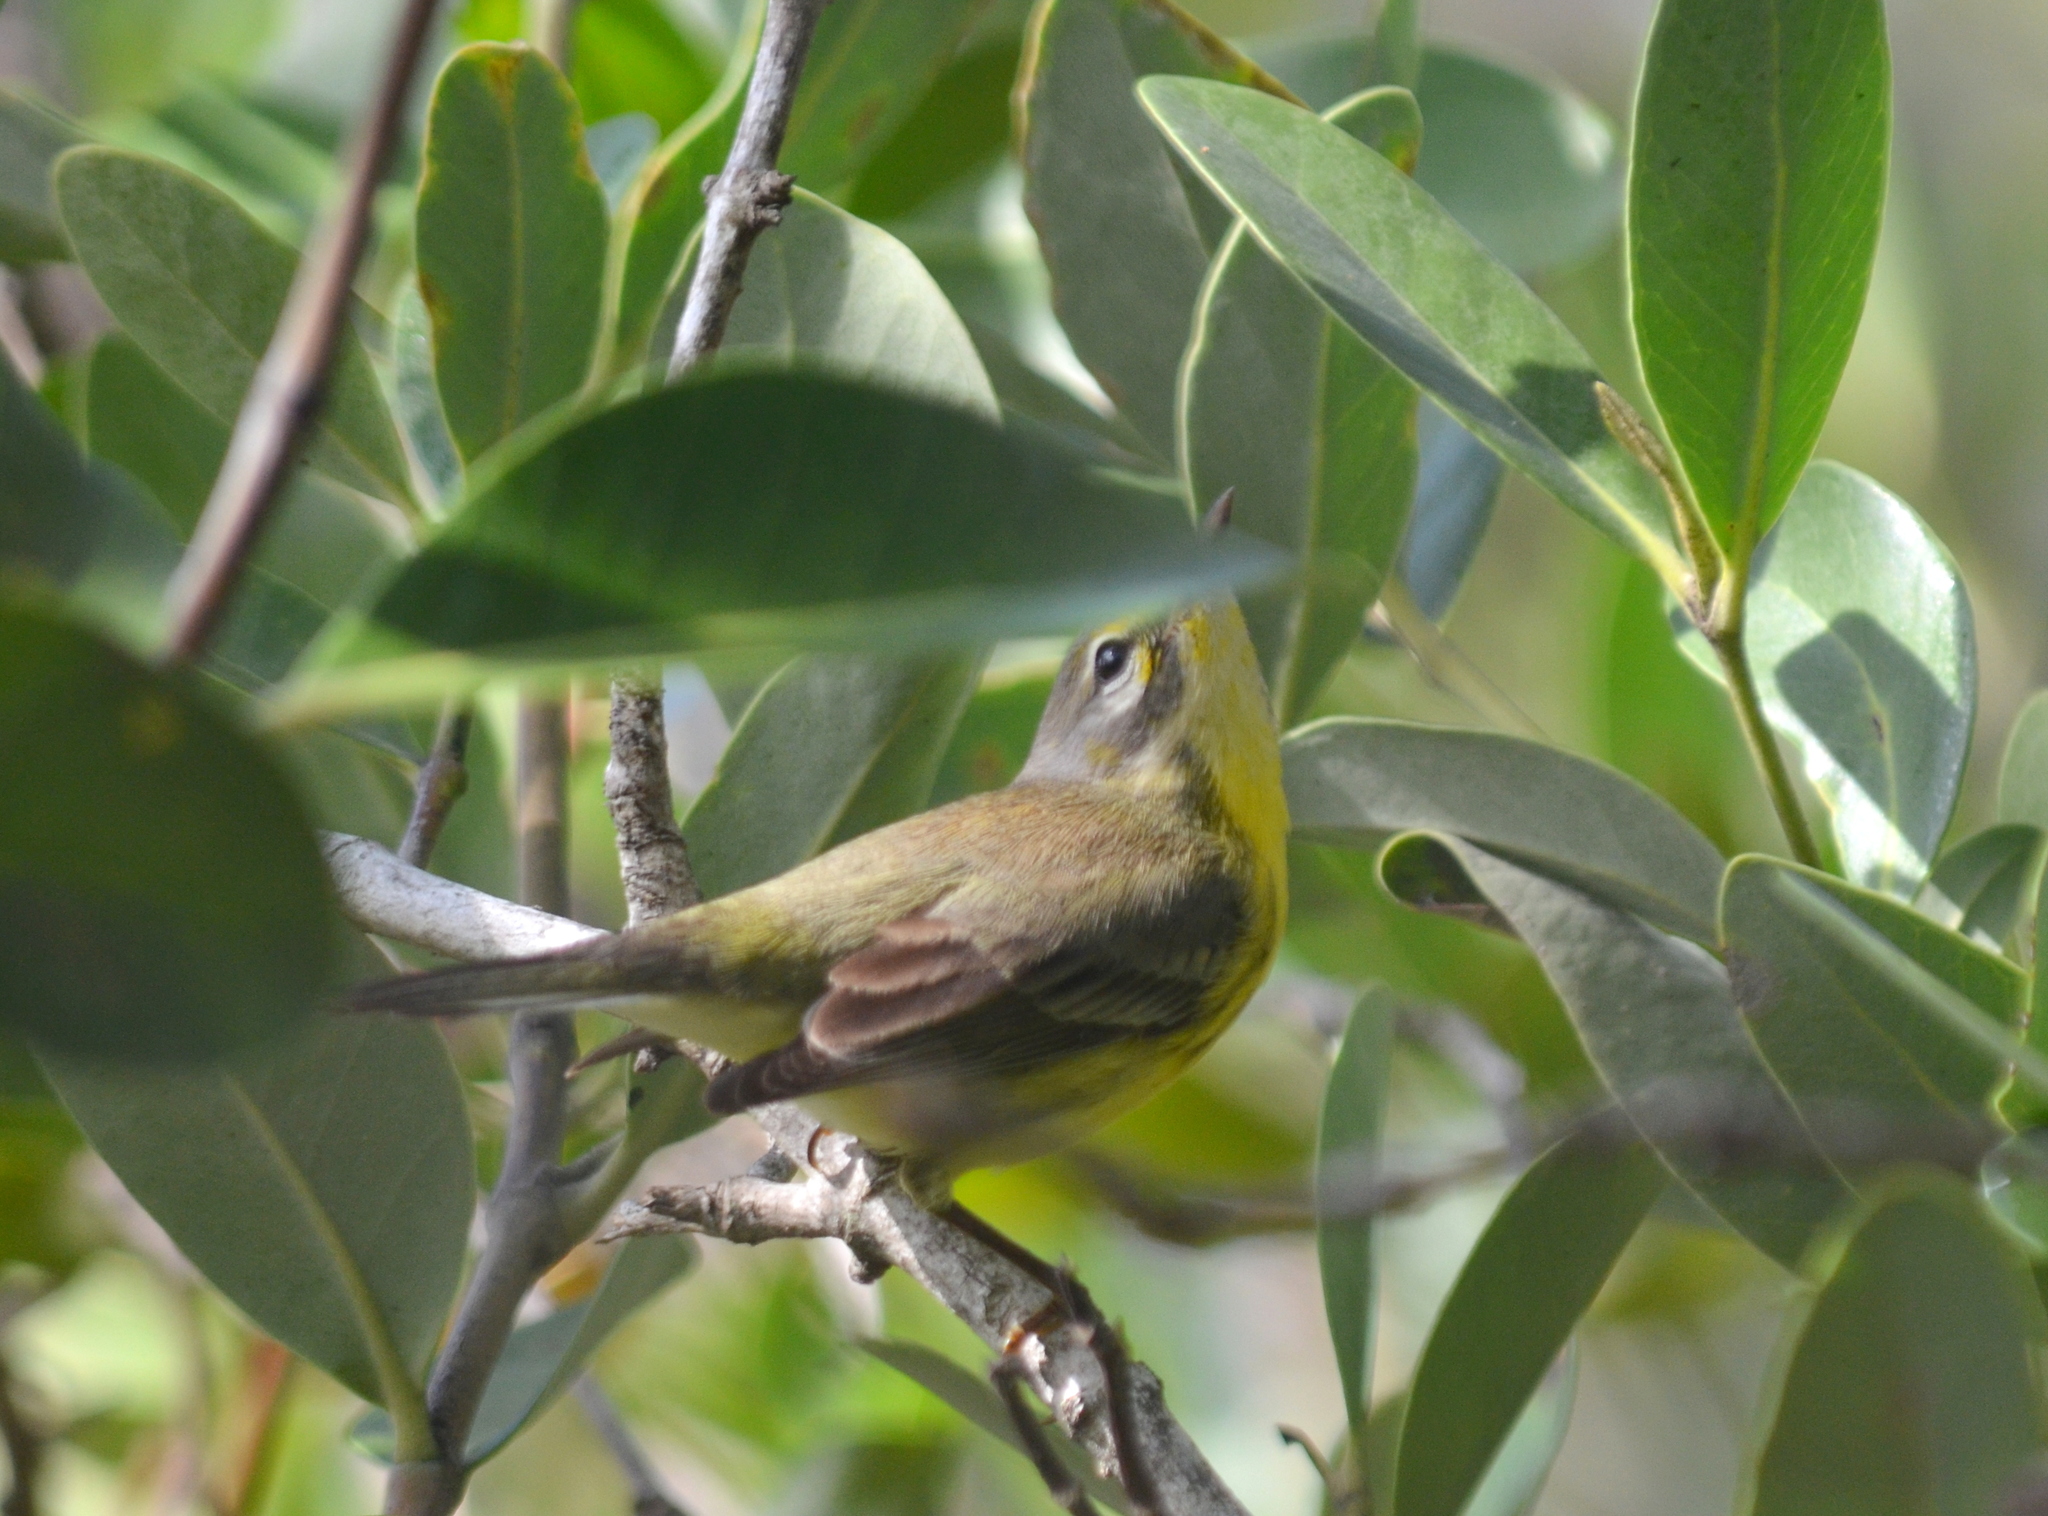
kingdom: Animalia
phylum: Chordata
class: Aves
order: Passeriformes
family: Parulidae
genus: Setophaga
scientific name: Setophaga discolor
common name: Prairie warbler
